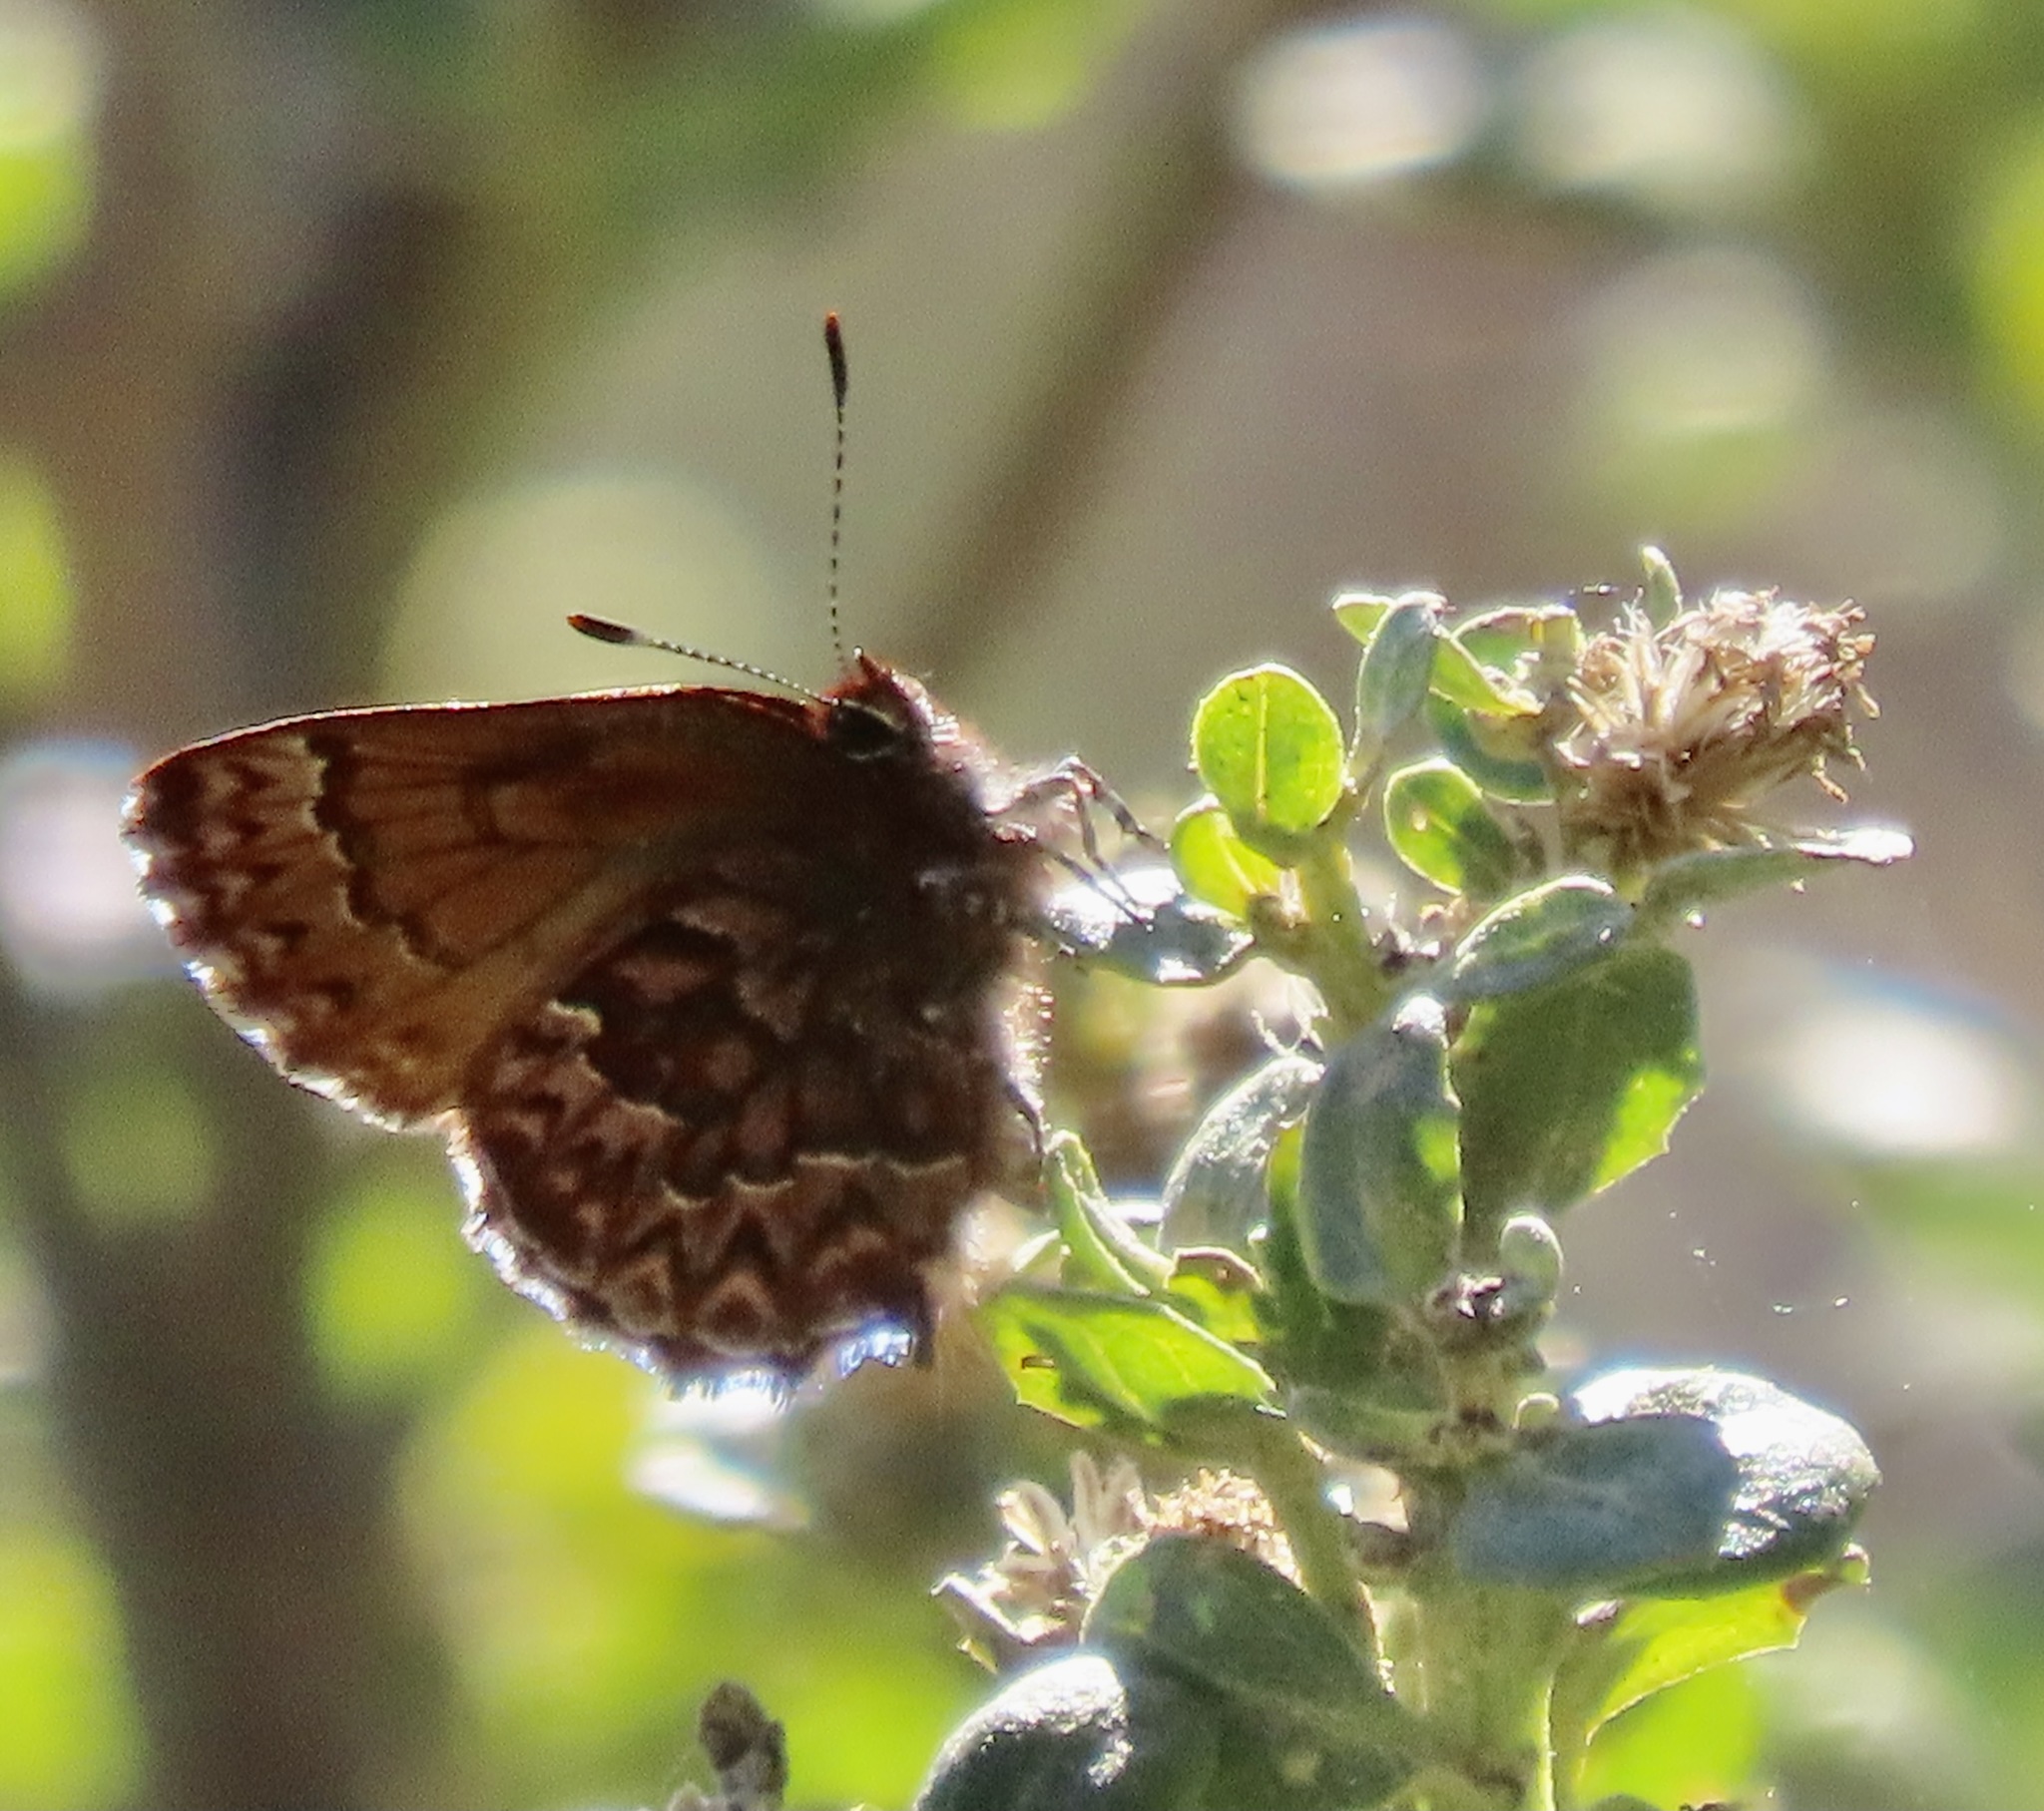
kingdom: Animalia
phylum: Arthropoda
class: Insecta
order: Lepidoptera
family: Lycaenidae
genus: Incisalia
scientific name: Incisalia eryphon
